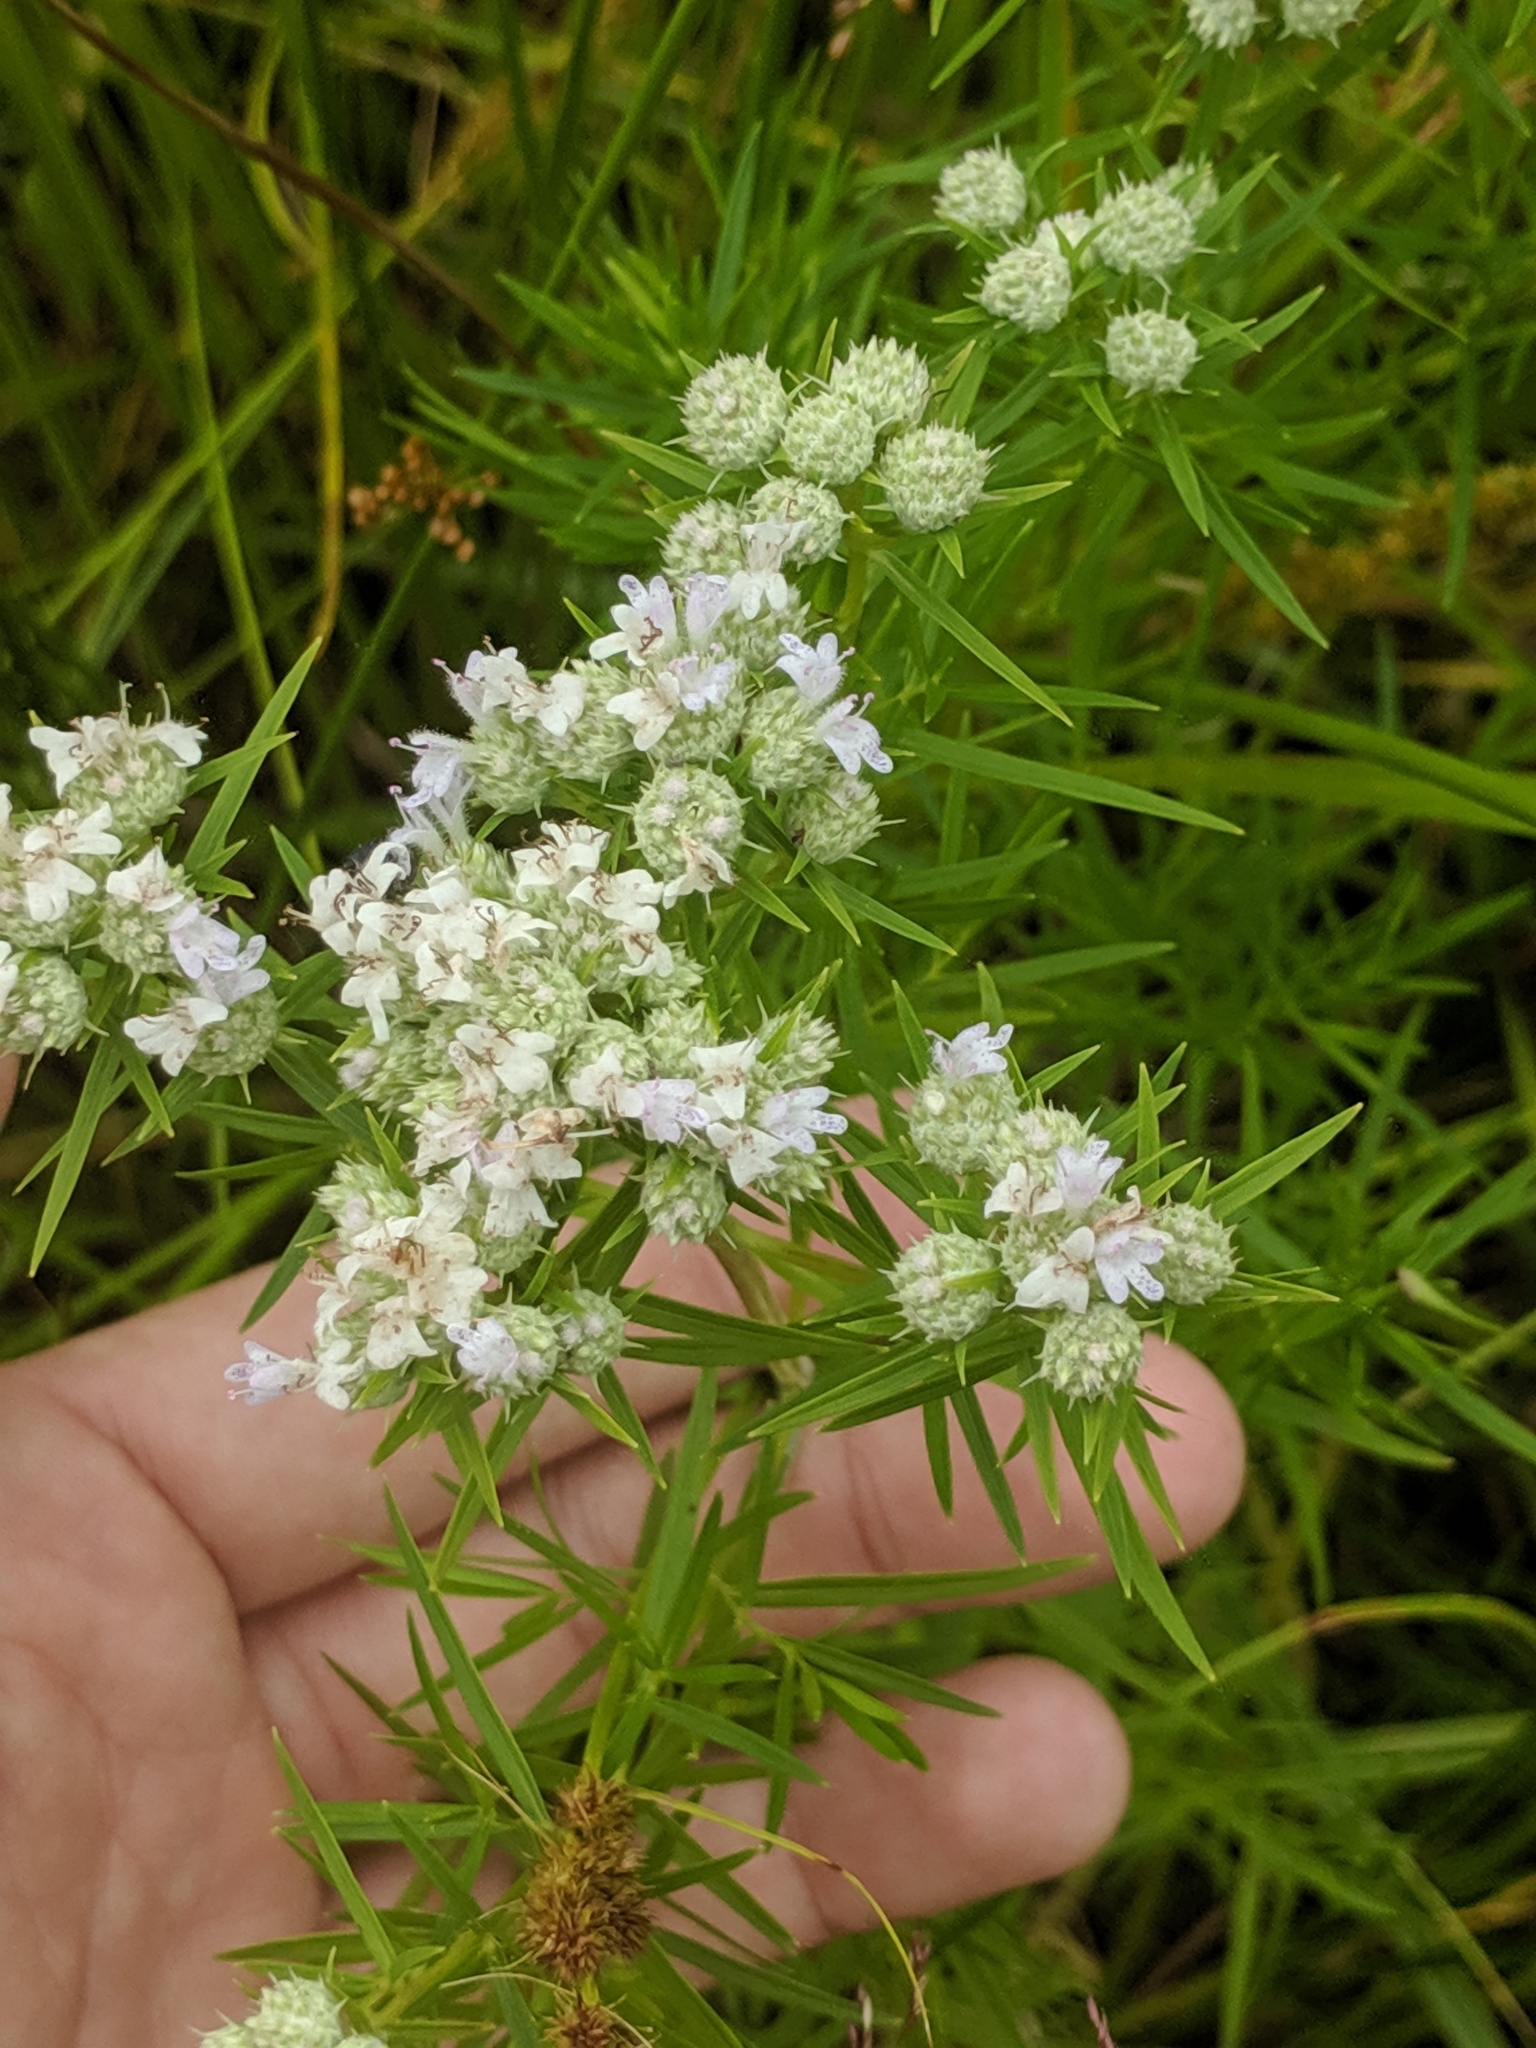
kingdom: Plantae
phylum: Tracheophyta
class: Magnoliopsida
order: Lamiales
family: Lamiaceae
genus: Pycnanthemum
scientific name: Pycnanthemum tenuifolium
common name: Narrow-leaf mountain-mint
